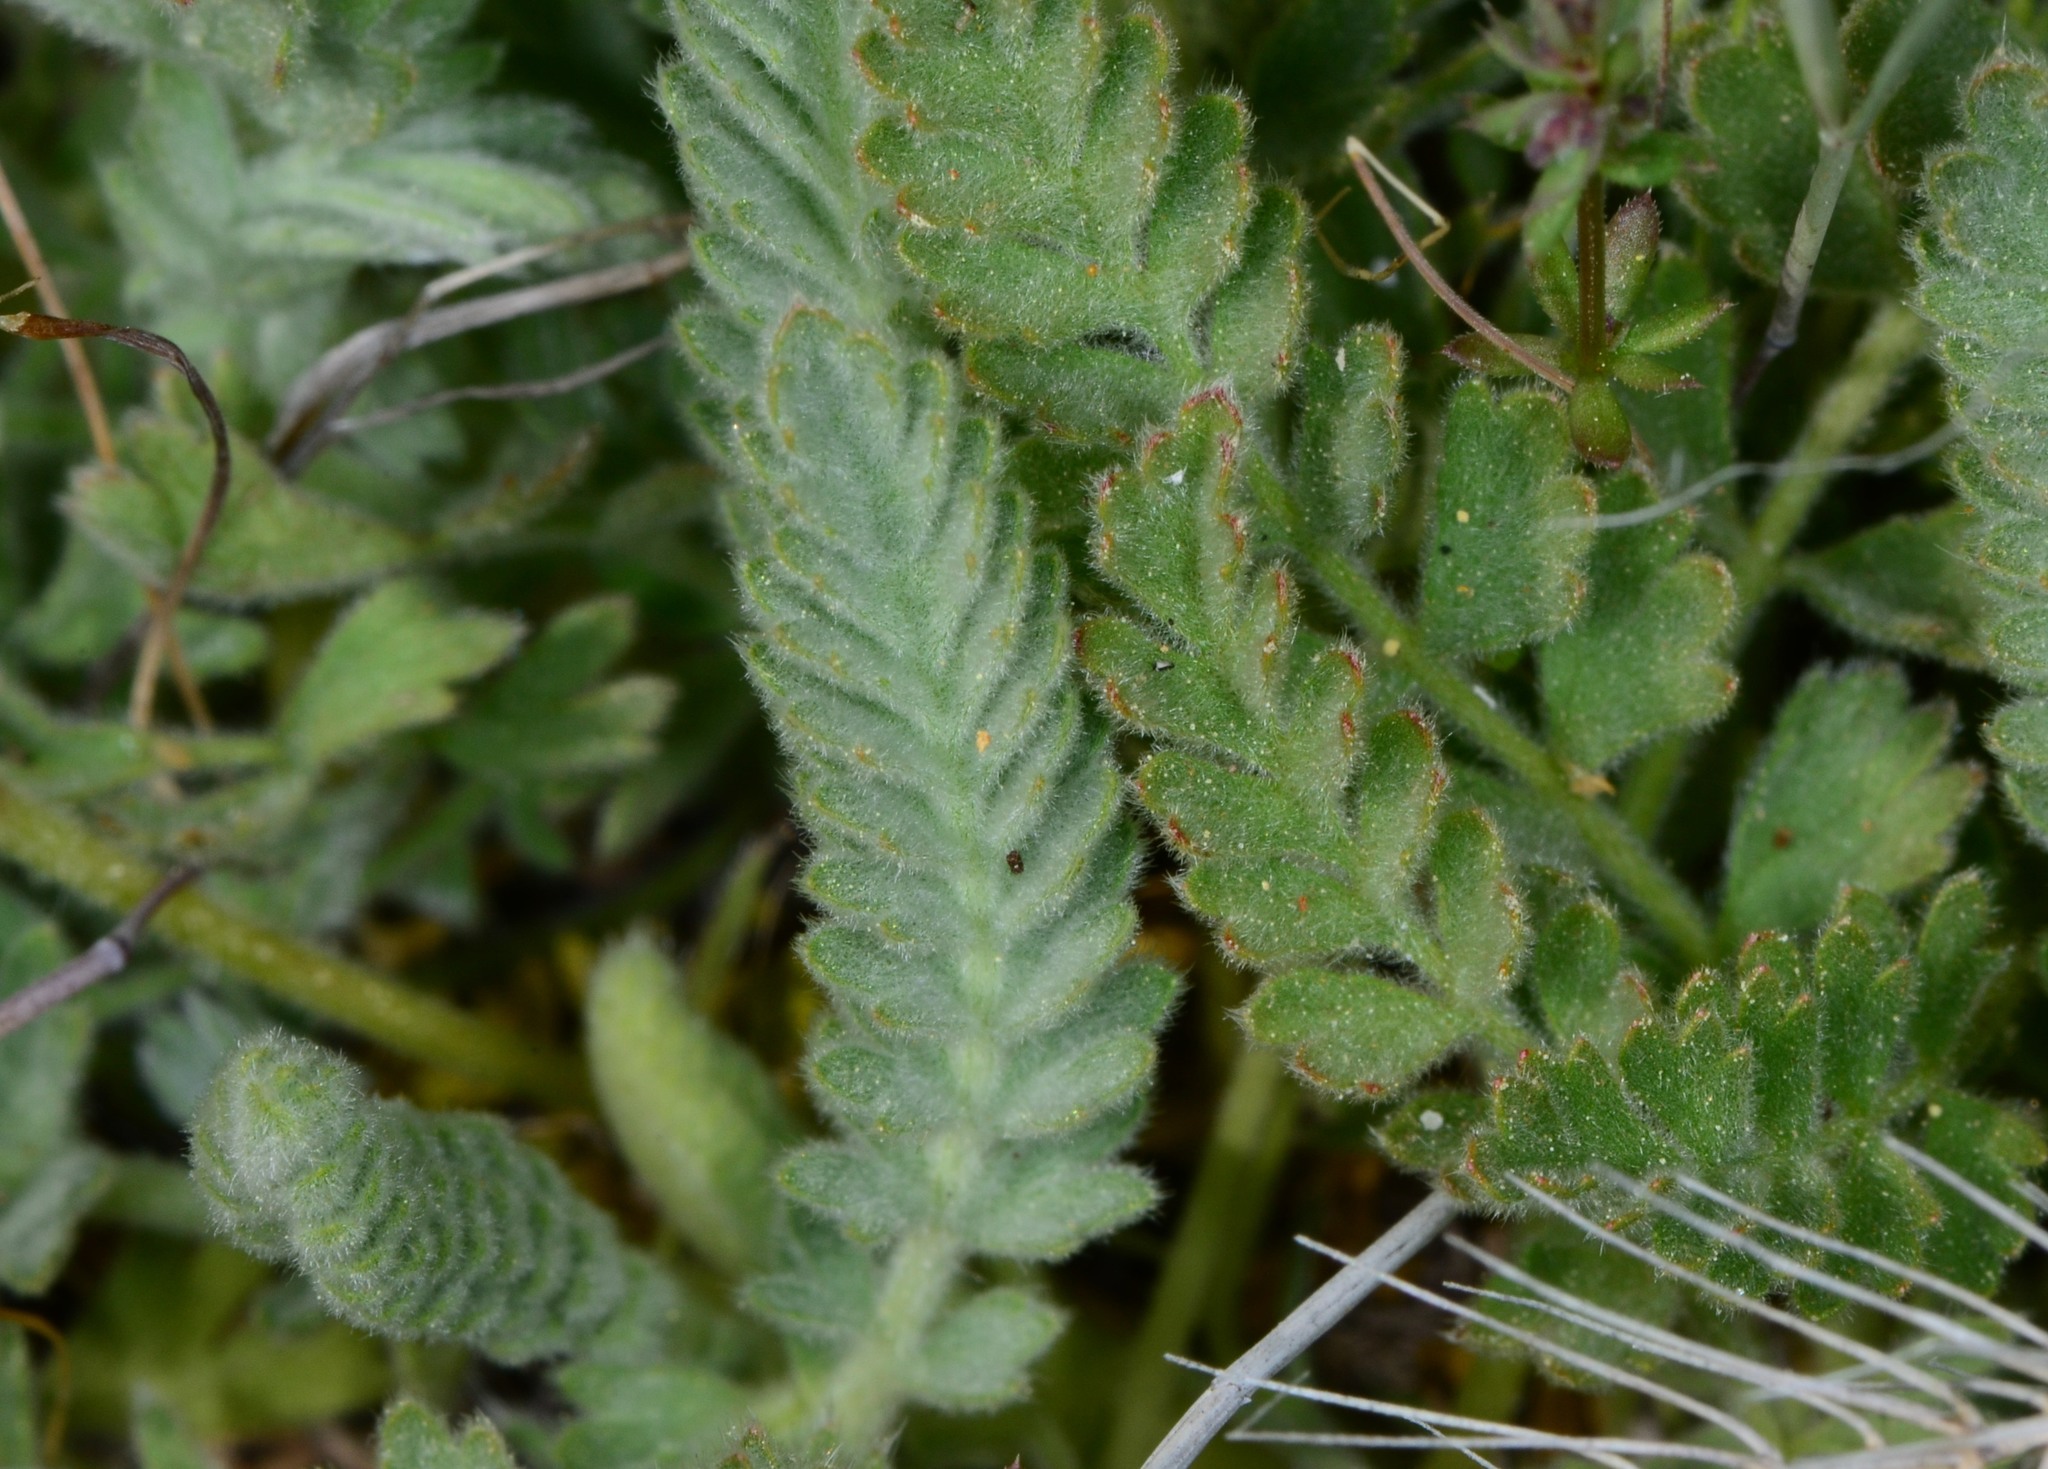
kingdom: Plantae
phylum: Tracheophyta
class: Magnoliopsida
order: Rosales
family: Rosaceae
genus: Potentilla
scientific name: Potentilla bolanderi
